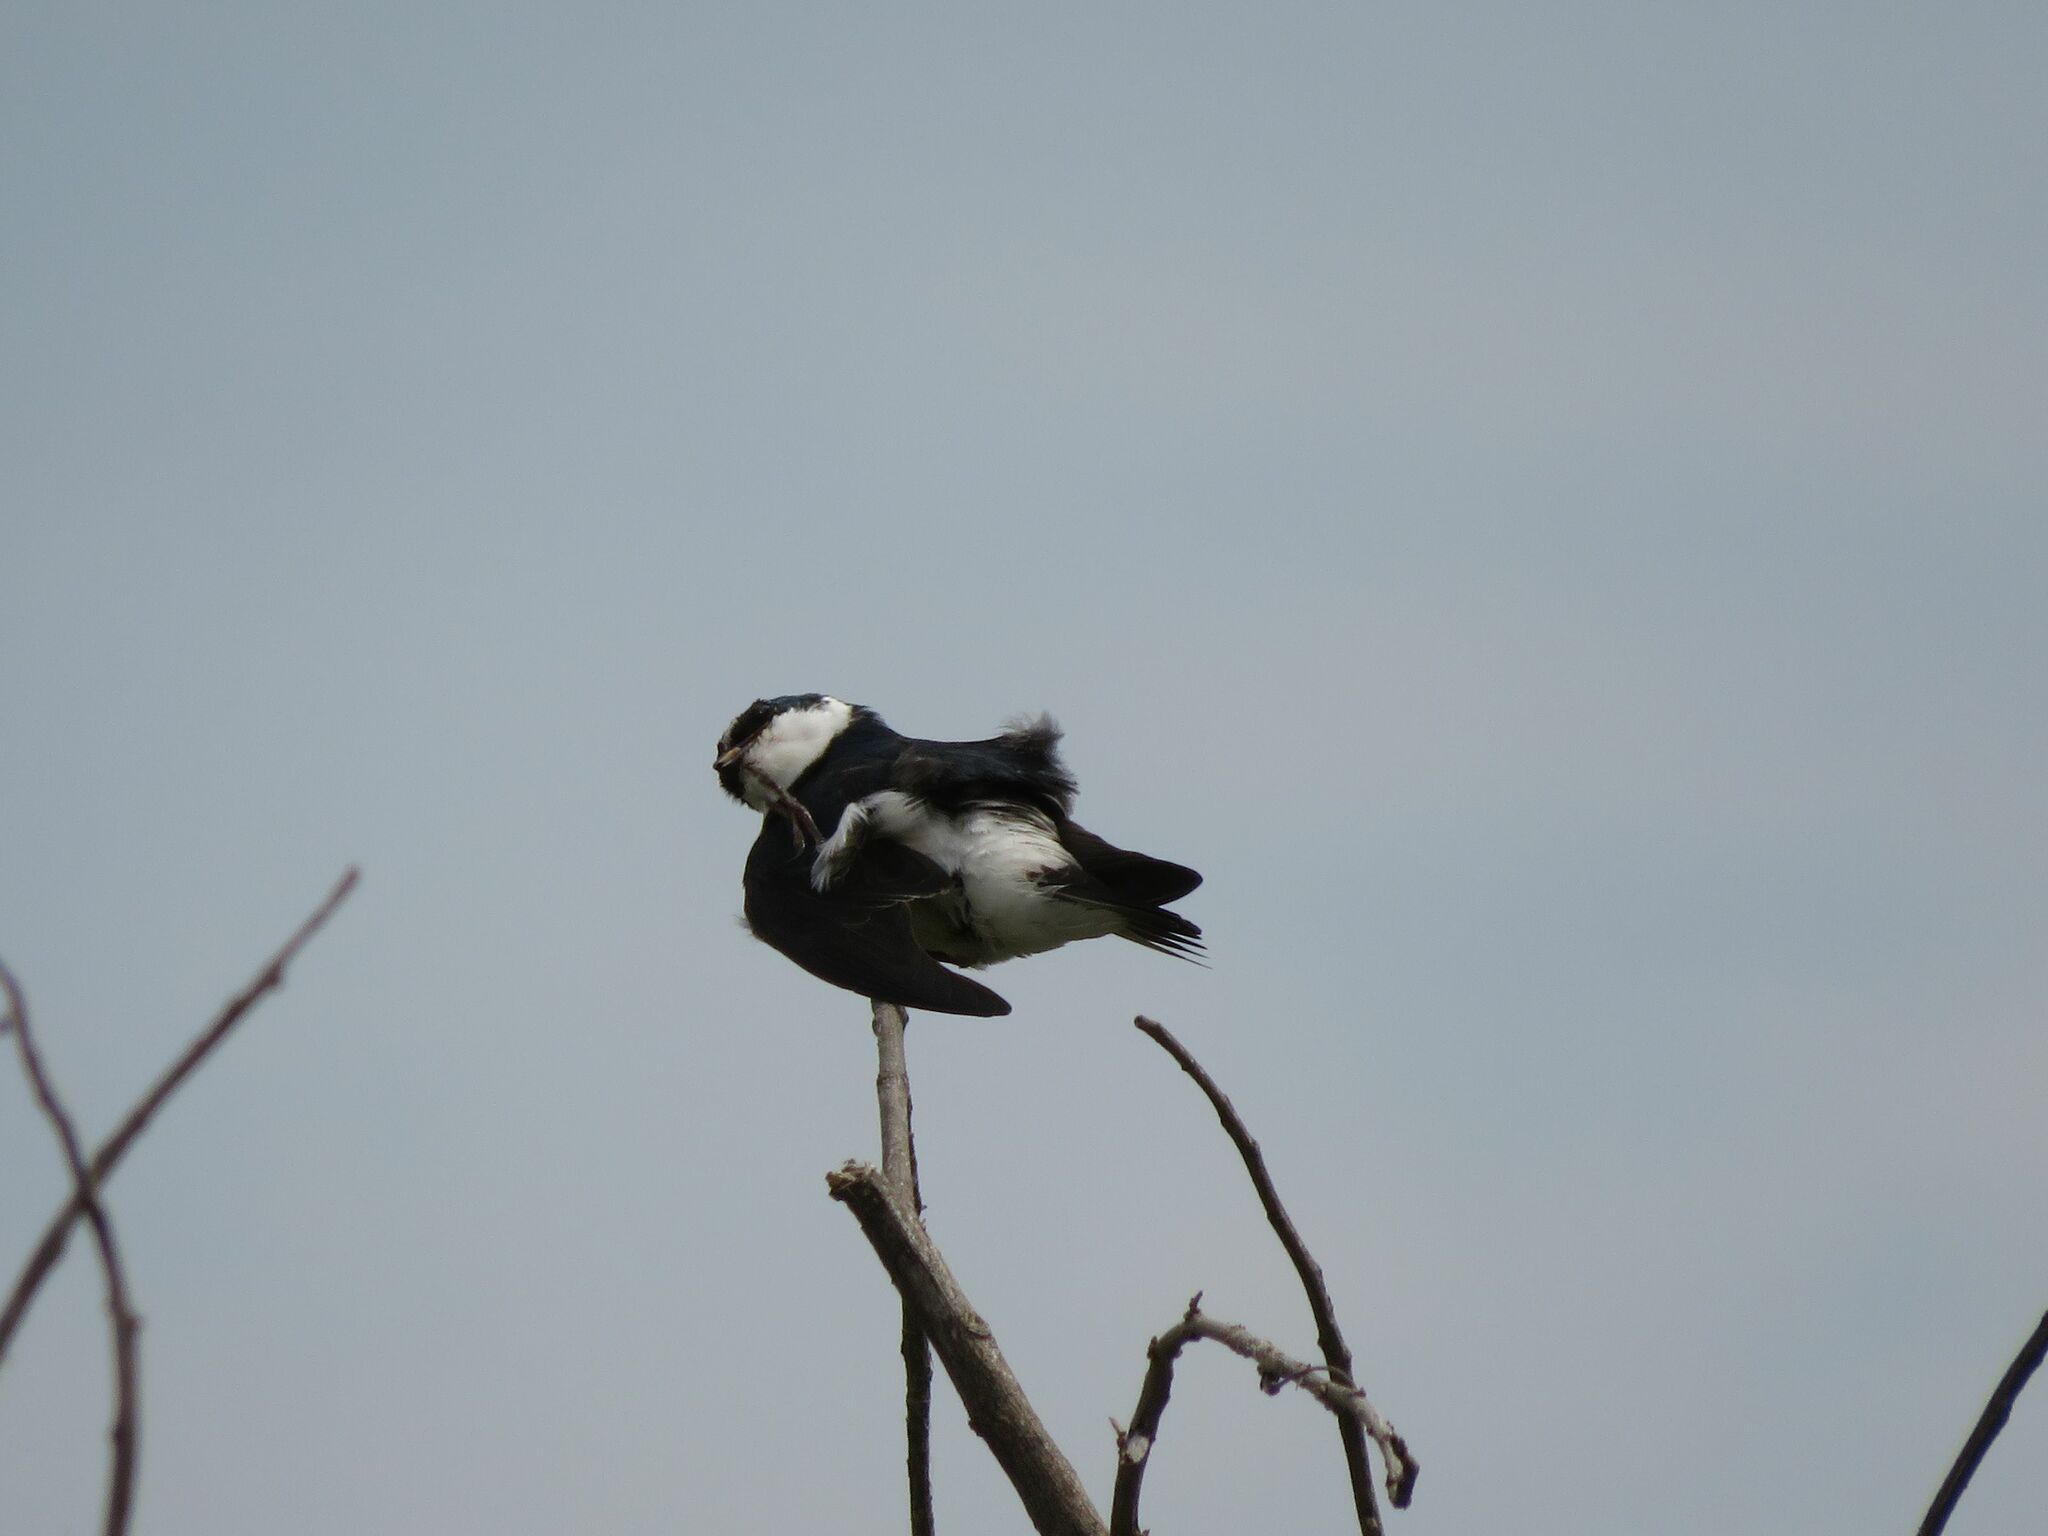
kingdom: Animalia
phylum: Chordata
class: Aves
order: Passeriformes
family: Hirundinidae
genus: Tachycineta
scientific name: Tachycineta leucorrhoa
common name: White-rumped swallow
